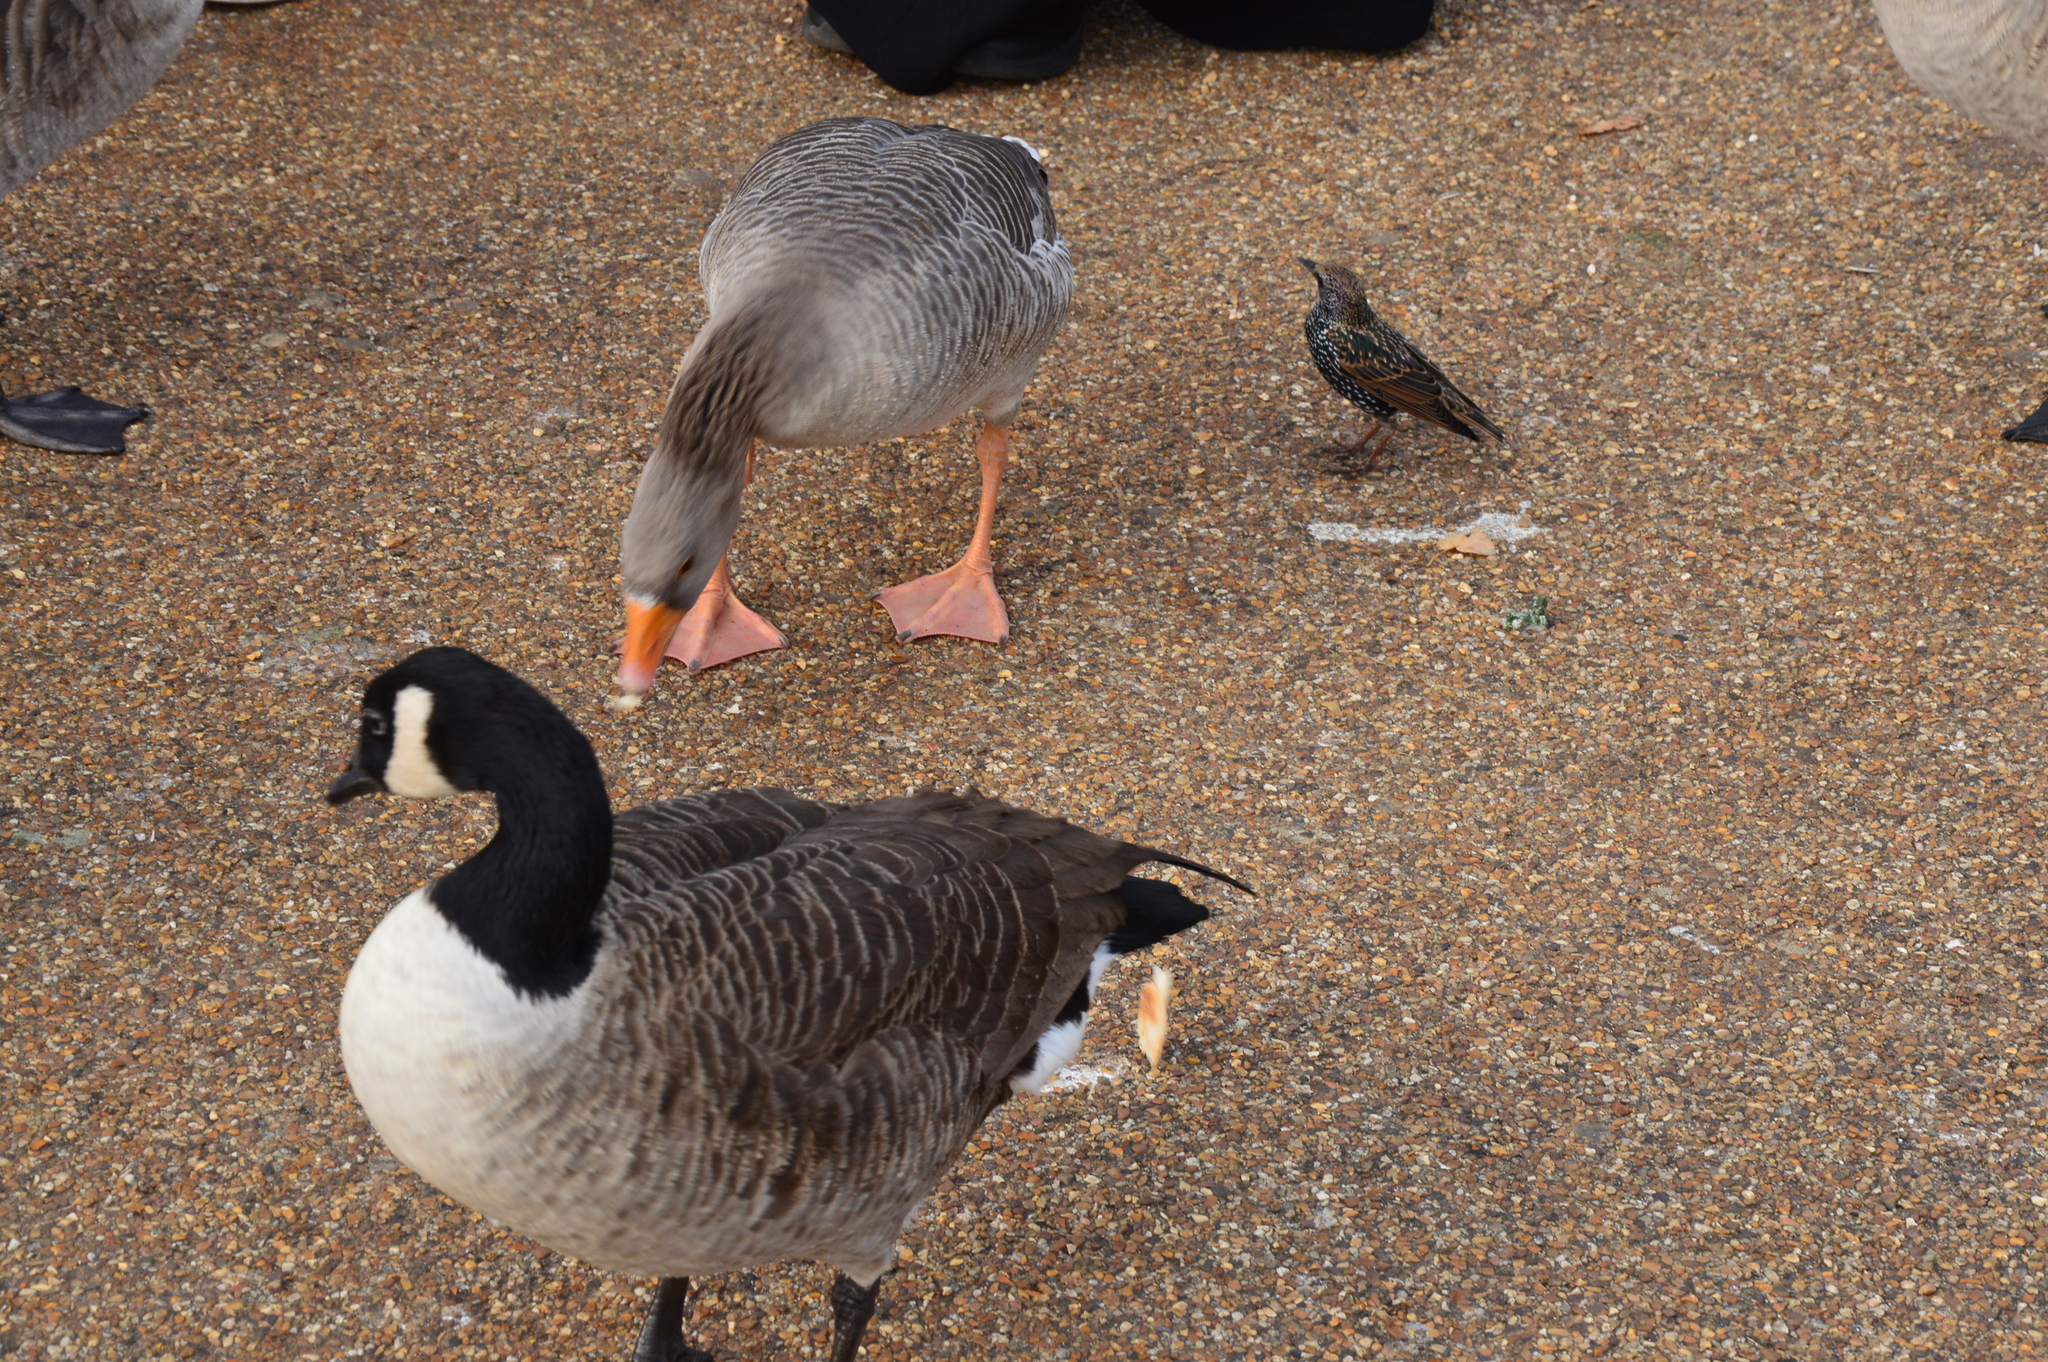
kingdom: Animalia
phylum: Chordata
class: Aves
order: Passeriformes
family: Sturnidae
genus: Sturnus
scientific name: Sturnus vulgaris
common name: Common starling
